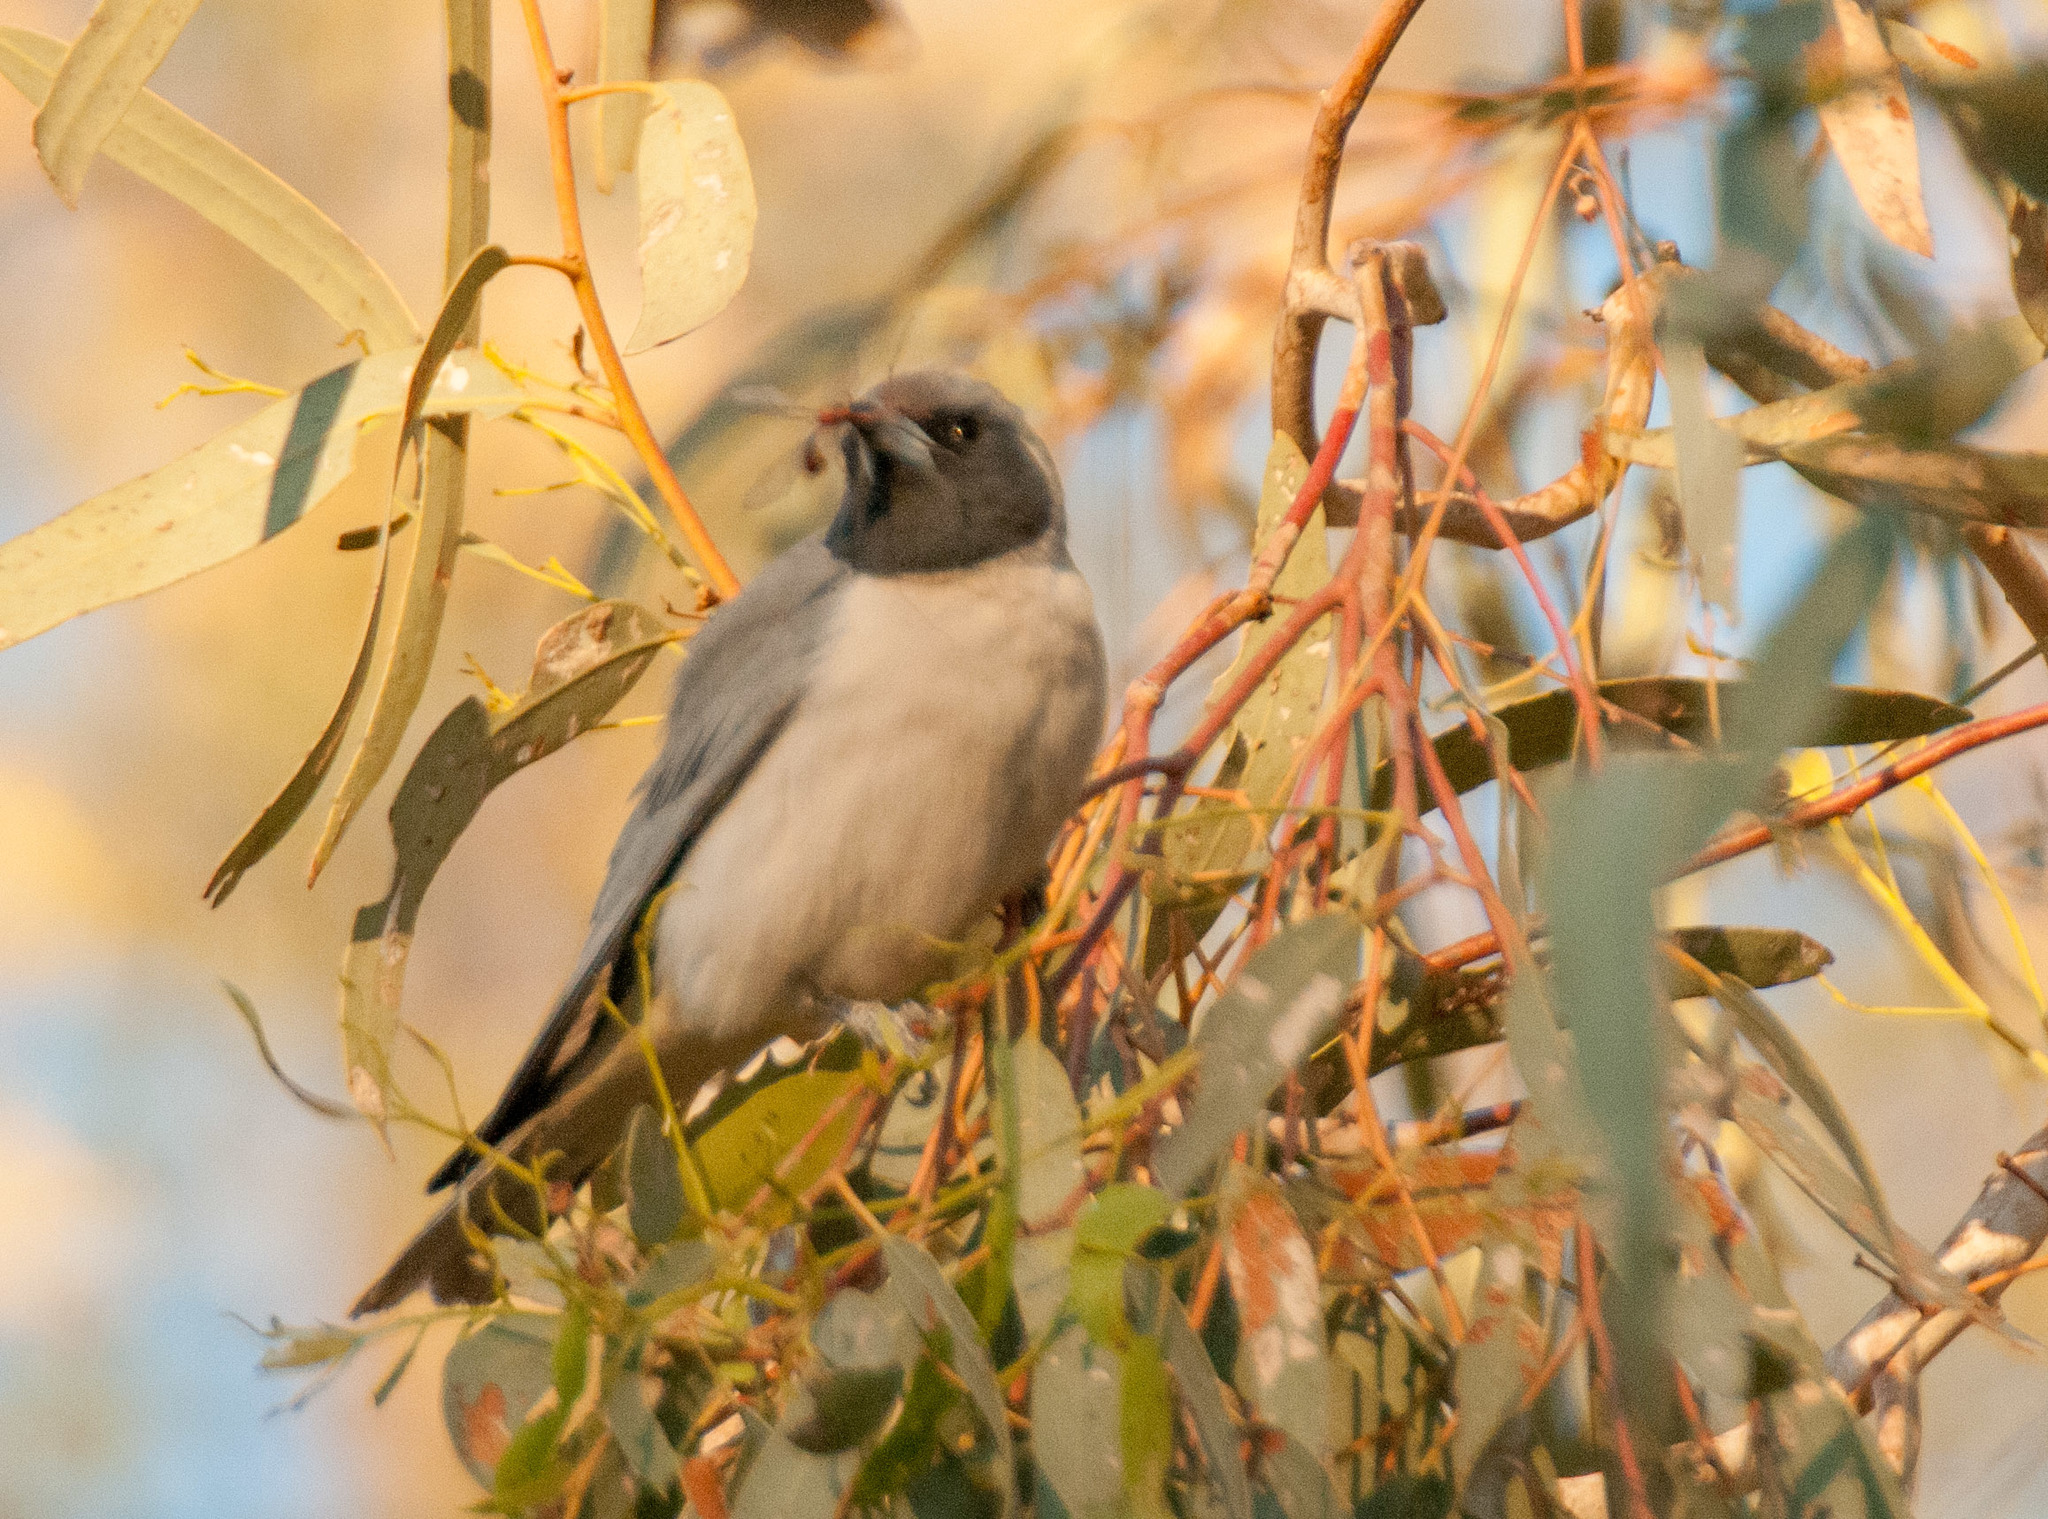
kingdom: Animalia
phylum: Chordata
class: Aves
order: Passeriformes
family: Artamidae
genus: Artamus
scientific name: Artamus personatus
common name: Masked woodswallow
